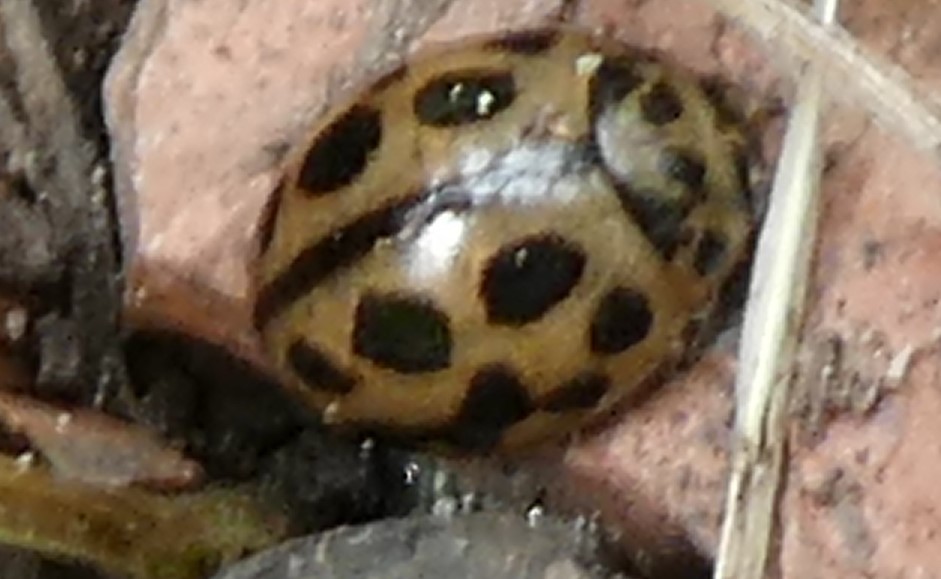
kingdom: Animalia
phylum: Arthropoda
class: Insecta
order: Coleoptera
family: Coccinellidae
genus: Tytthaspis
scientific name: Tytthaspis sedecimpunctata
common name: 16-spot ladybird
